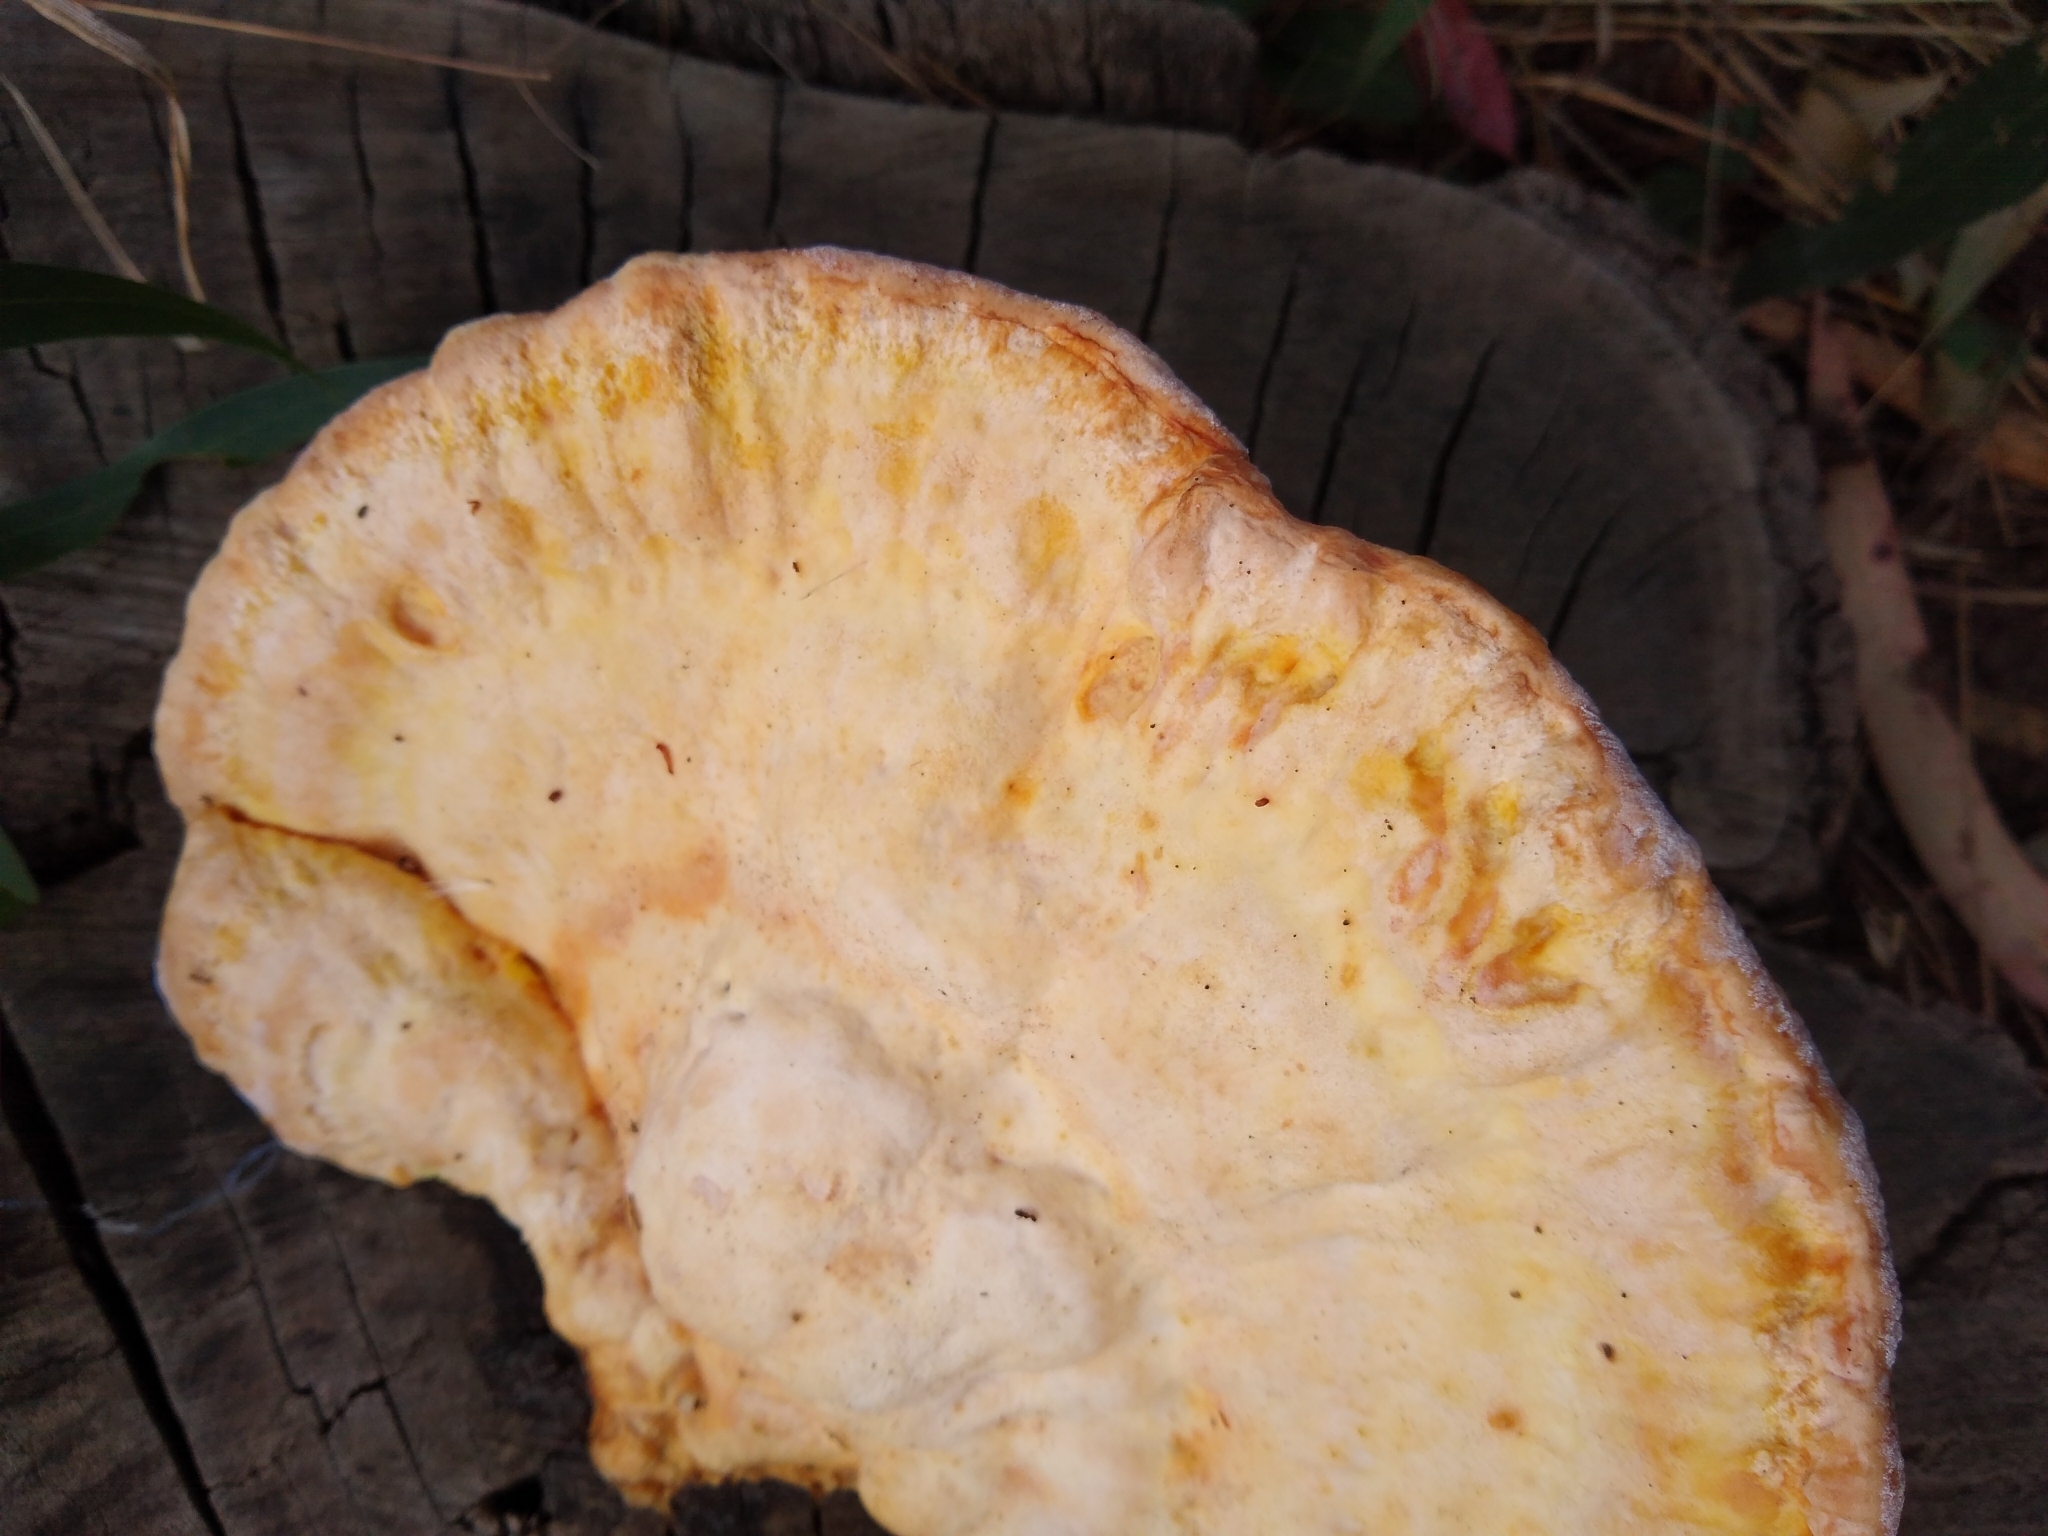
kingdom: Fungi
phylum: Basidiomycota
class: Agaricomycetes
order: Polyporales
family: Laetiporaceae
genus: Laetiporus
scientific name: Laetiporus gilbertsonii
